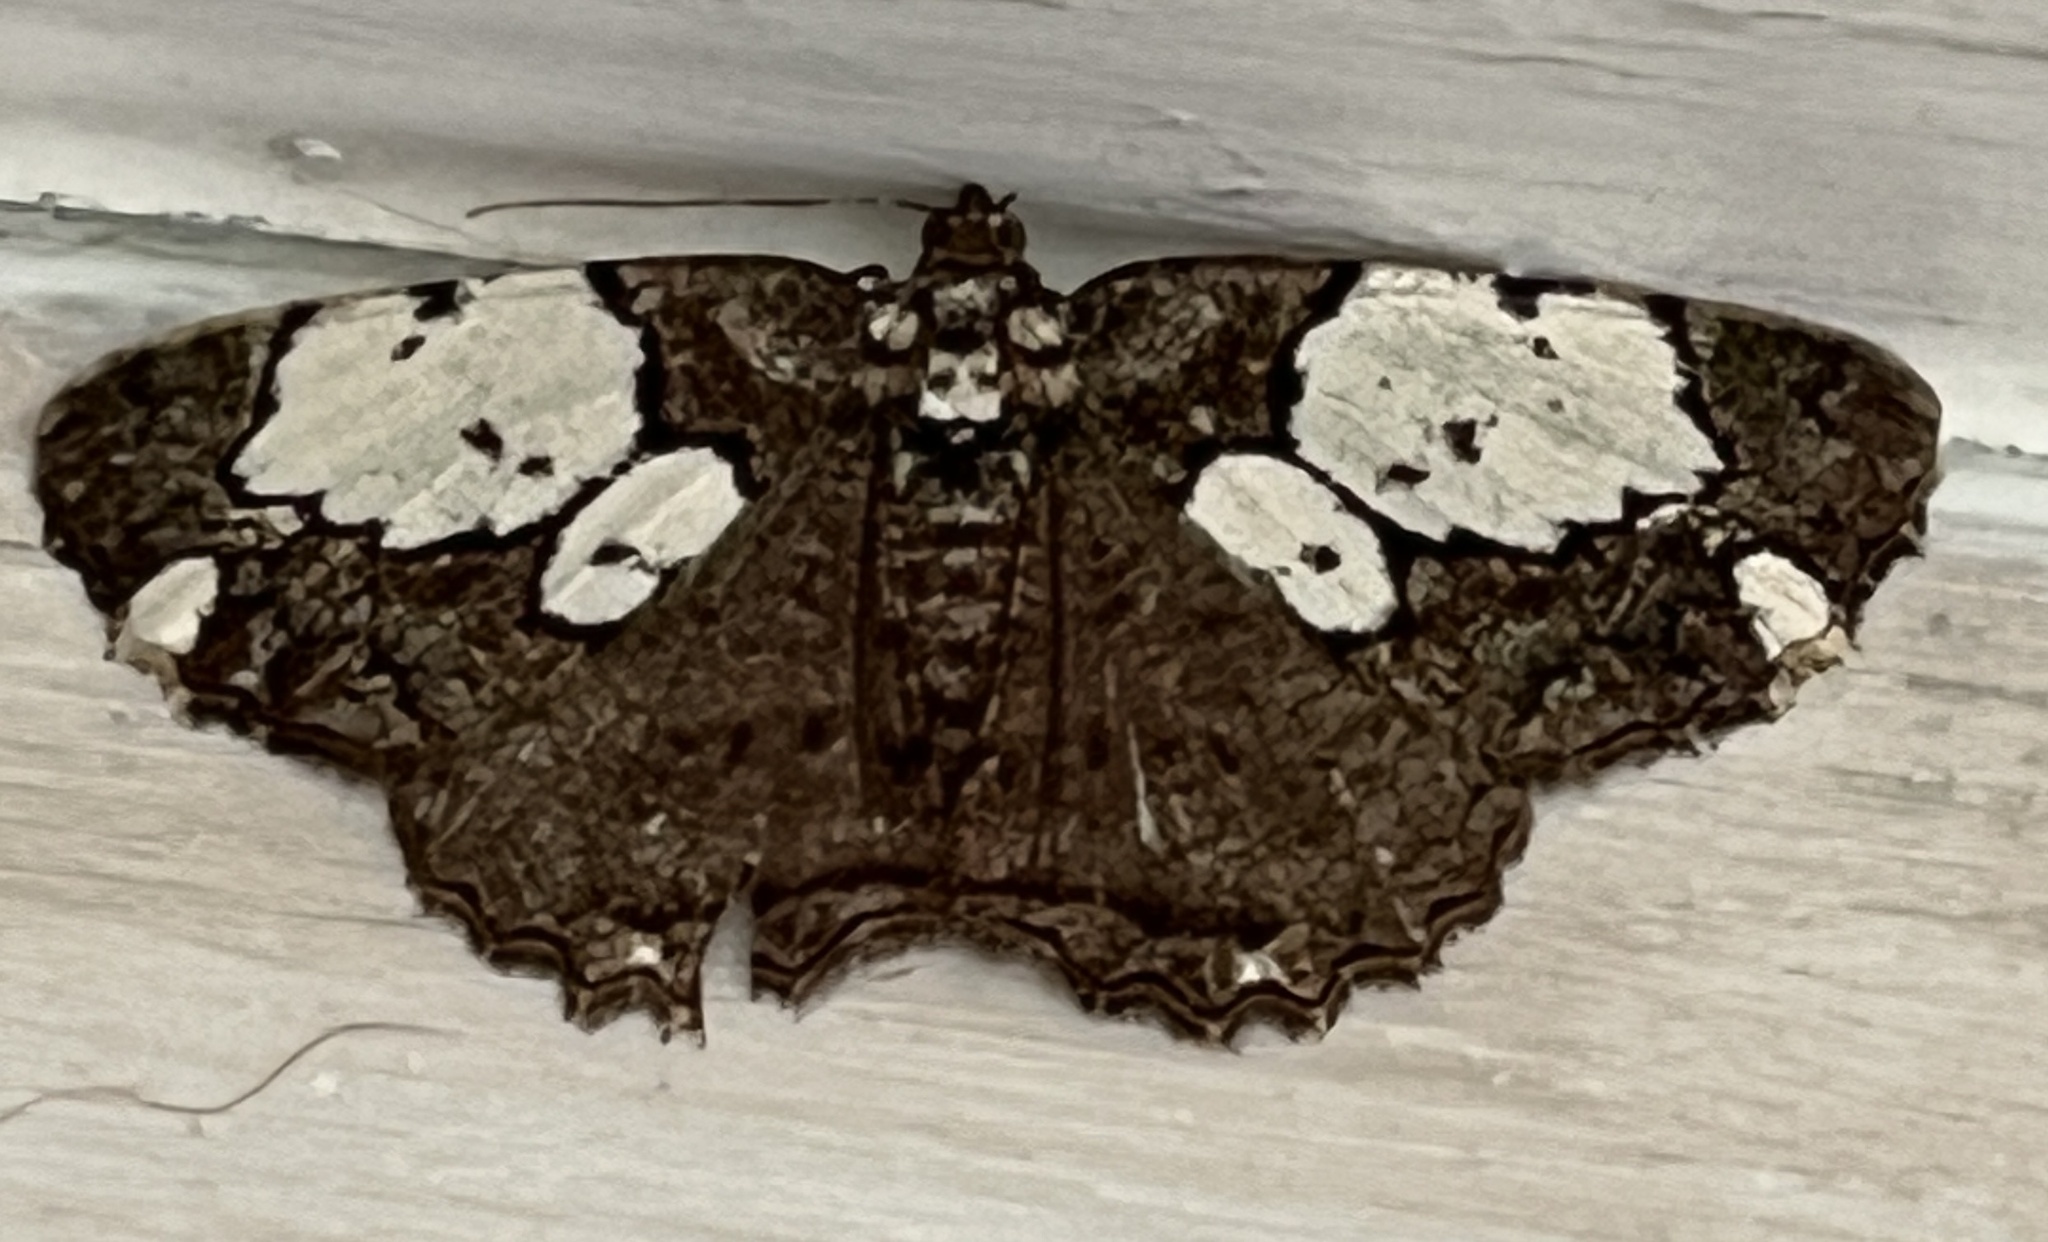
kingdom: Animalia
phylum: Arthropoda
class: Insecta
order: Lepidoptera
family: Geometridae
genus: Xylopteryx
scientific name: Xylopteryx protearia
